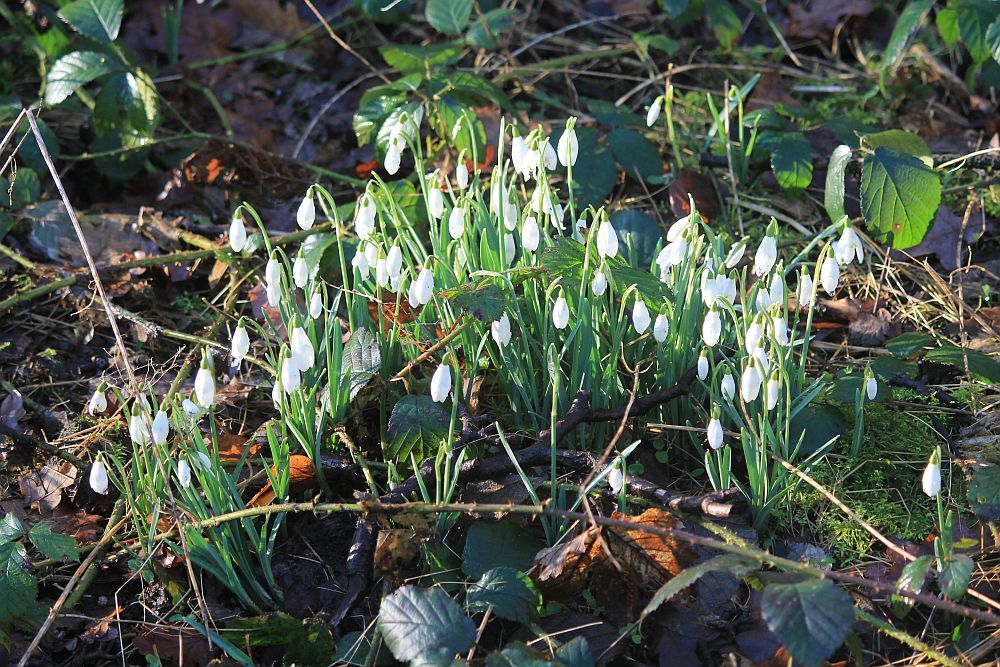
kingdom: Plantae
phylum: Tracheophyta
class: Liliopsida
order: Asparagales
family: Amaryllidaceae
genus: Galanthus
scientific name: Galanthus nivalis
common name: Snowdrop
